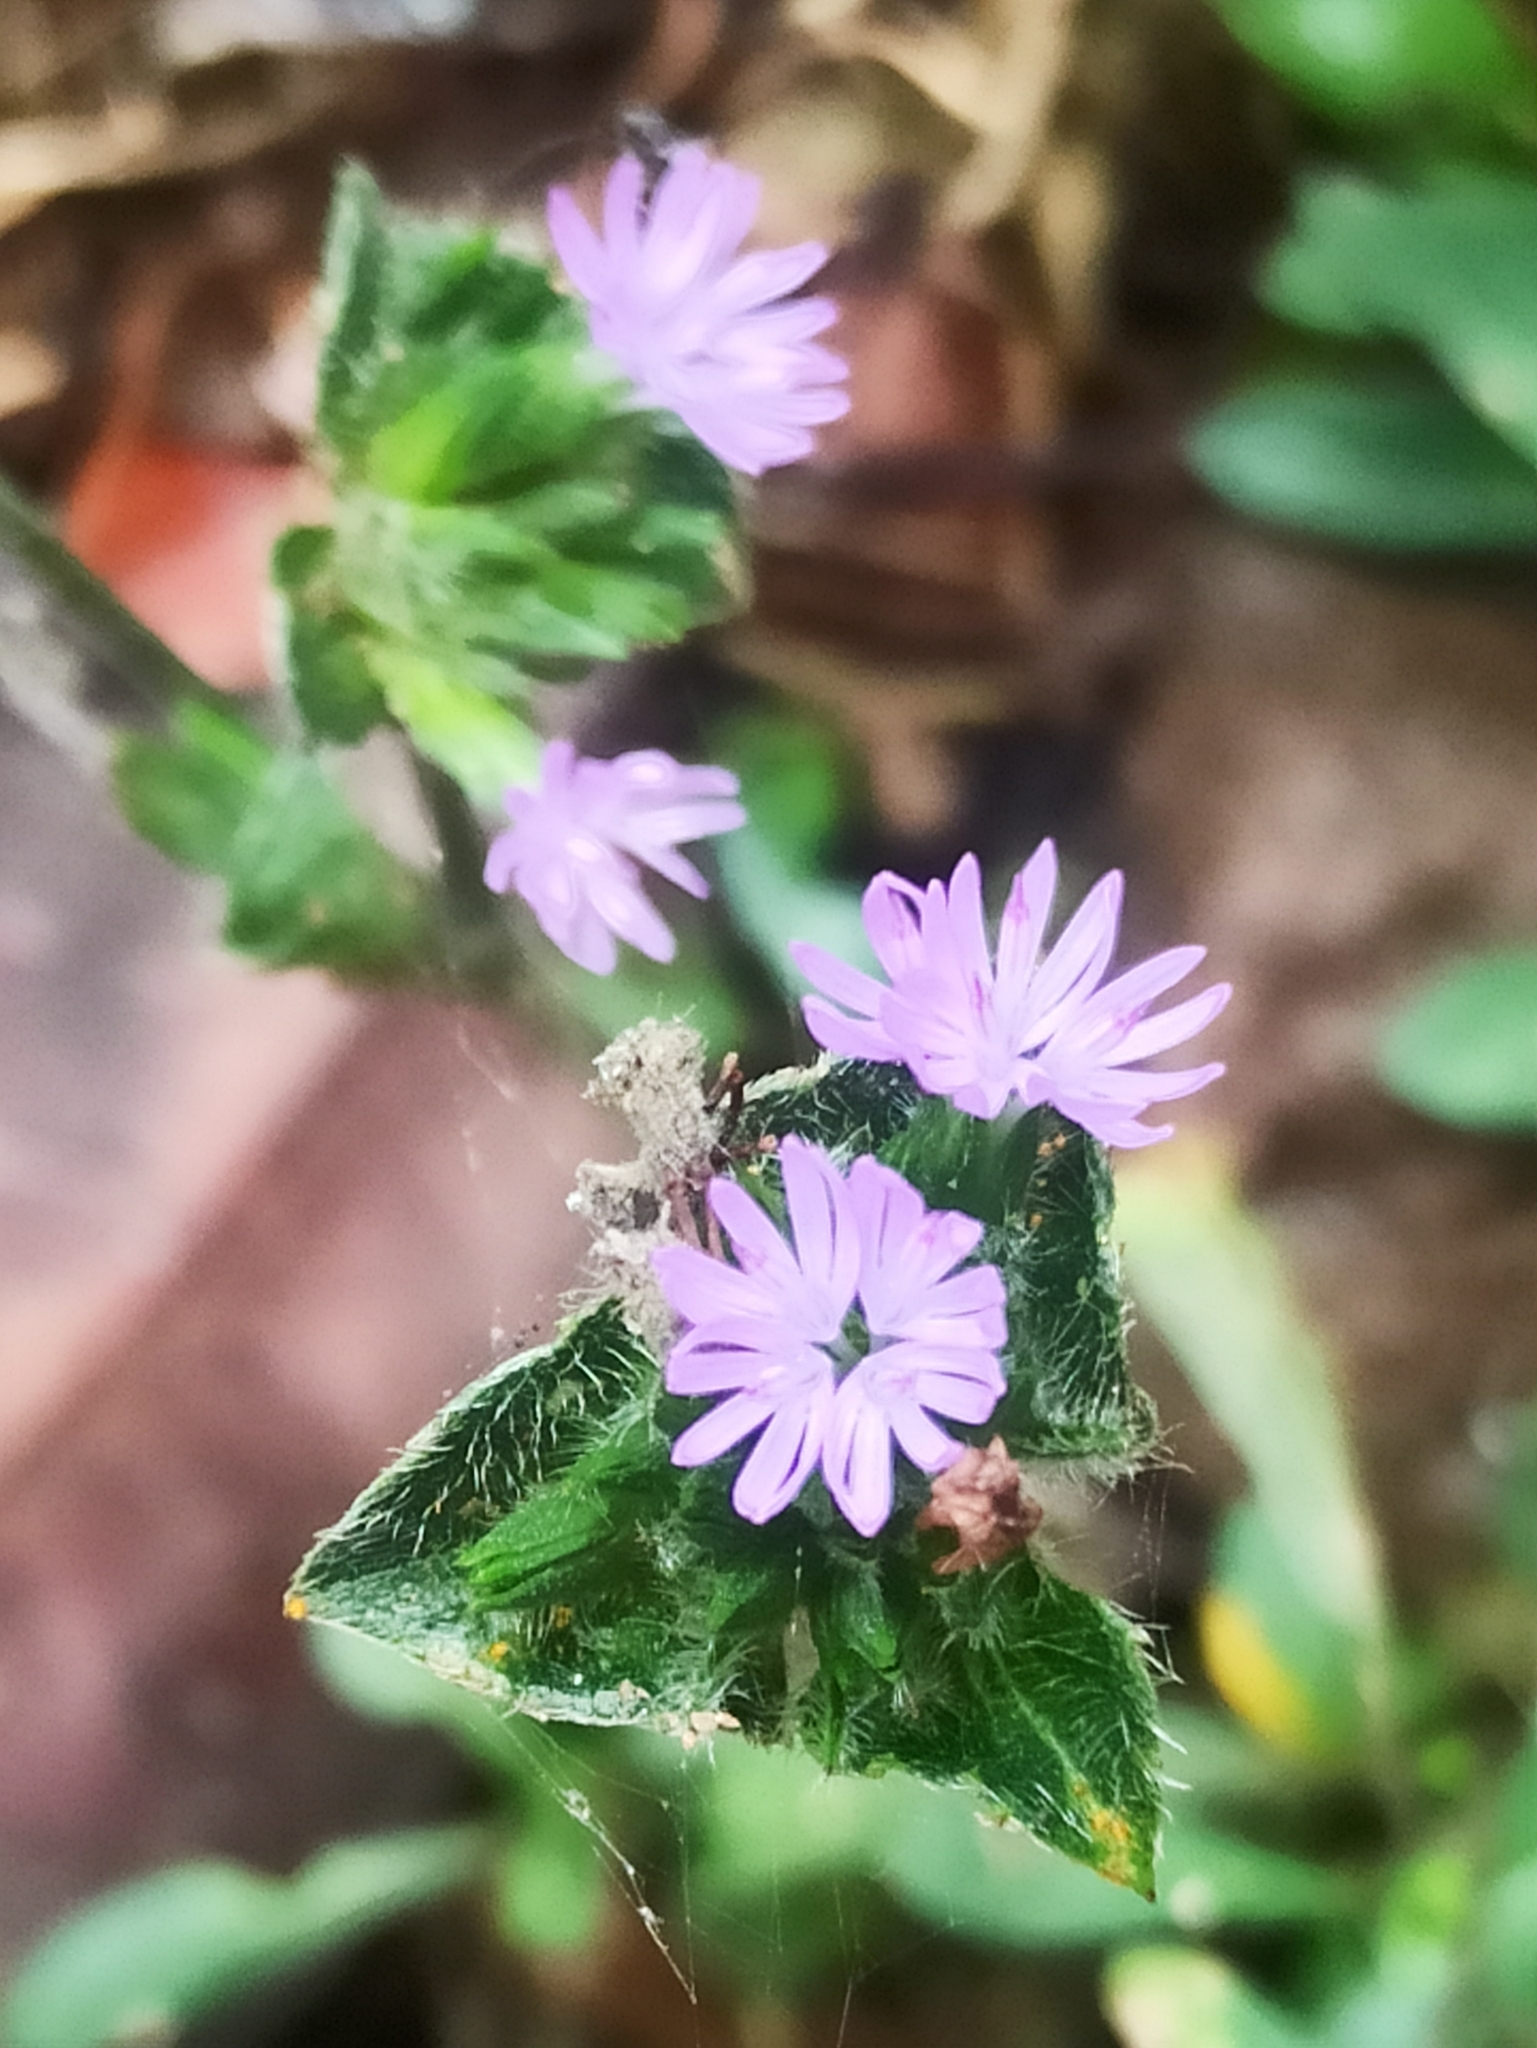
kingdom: Plantae
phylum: Tracheophyta
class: Magnoliopsida
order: Asterales
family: Asteraceae
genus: Elephantopus
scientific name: Elephantopus scaber
